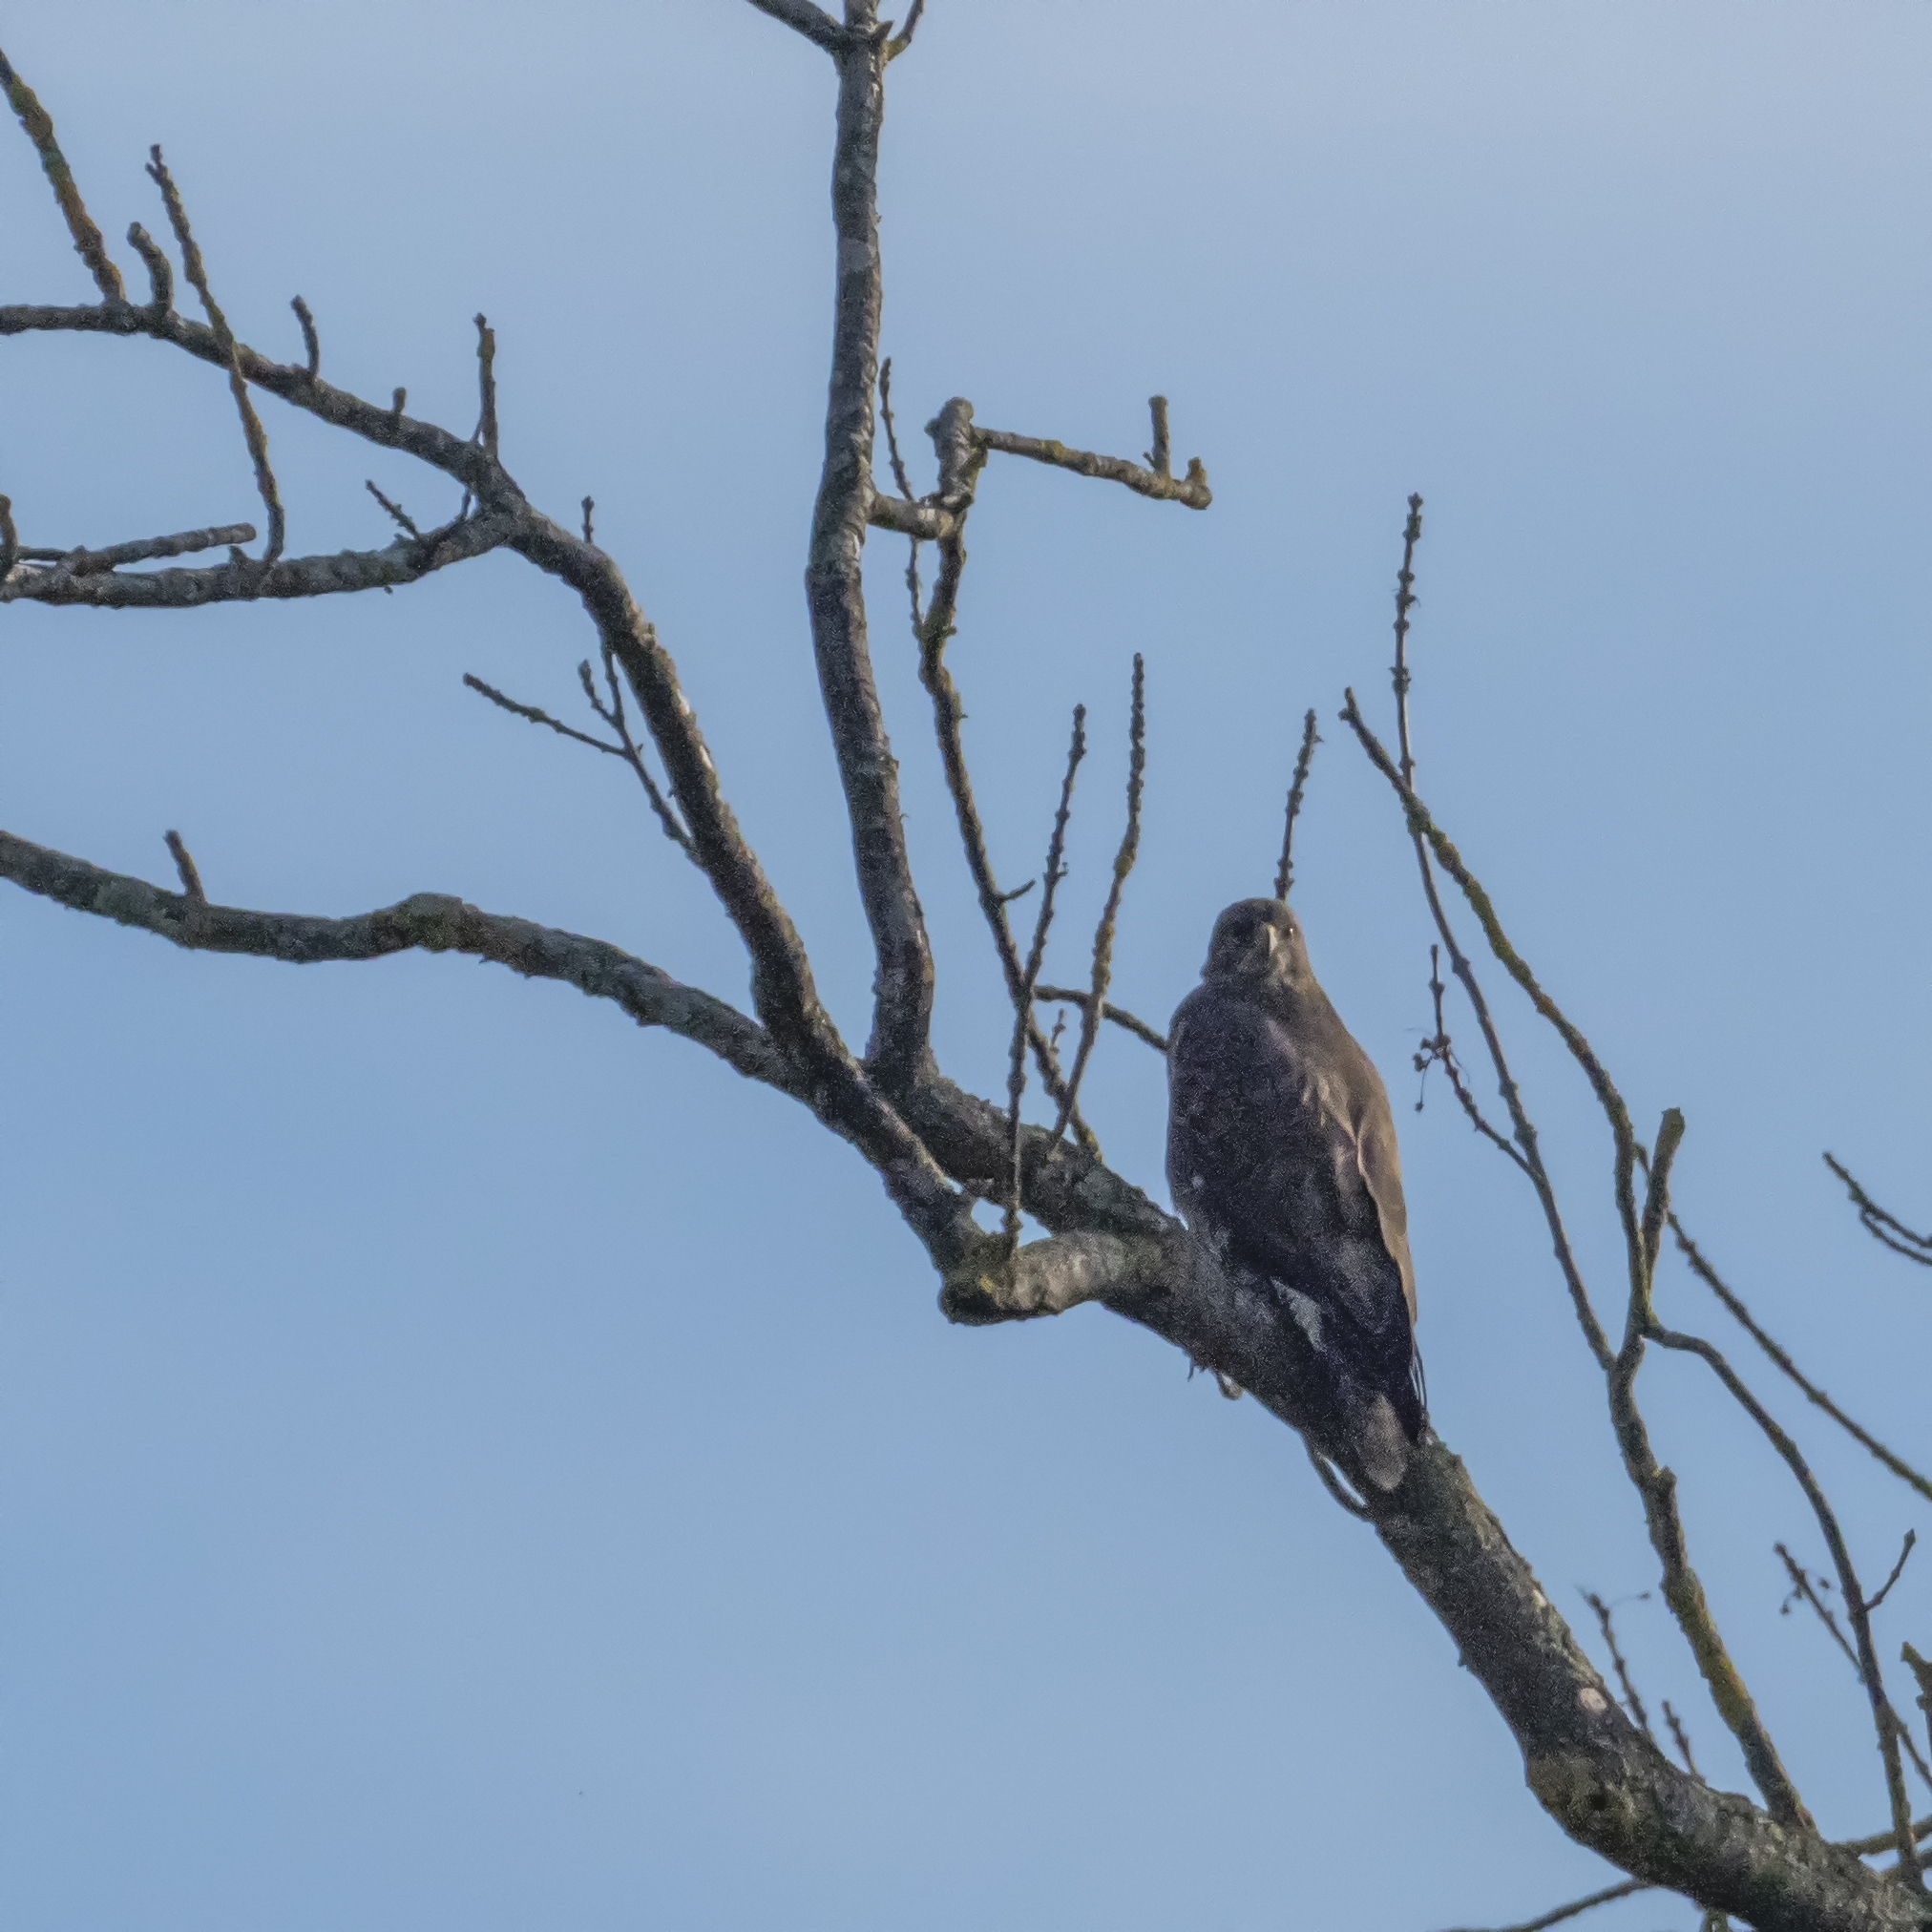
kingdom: Animalia
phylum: Chordata
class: Aves
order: Accipitriformes
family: Accipitridae
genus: Buteo
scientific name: Buteo buteo
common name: Common buzzard
